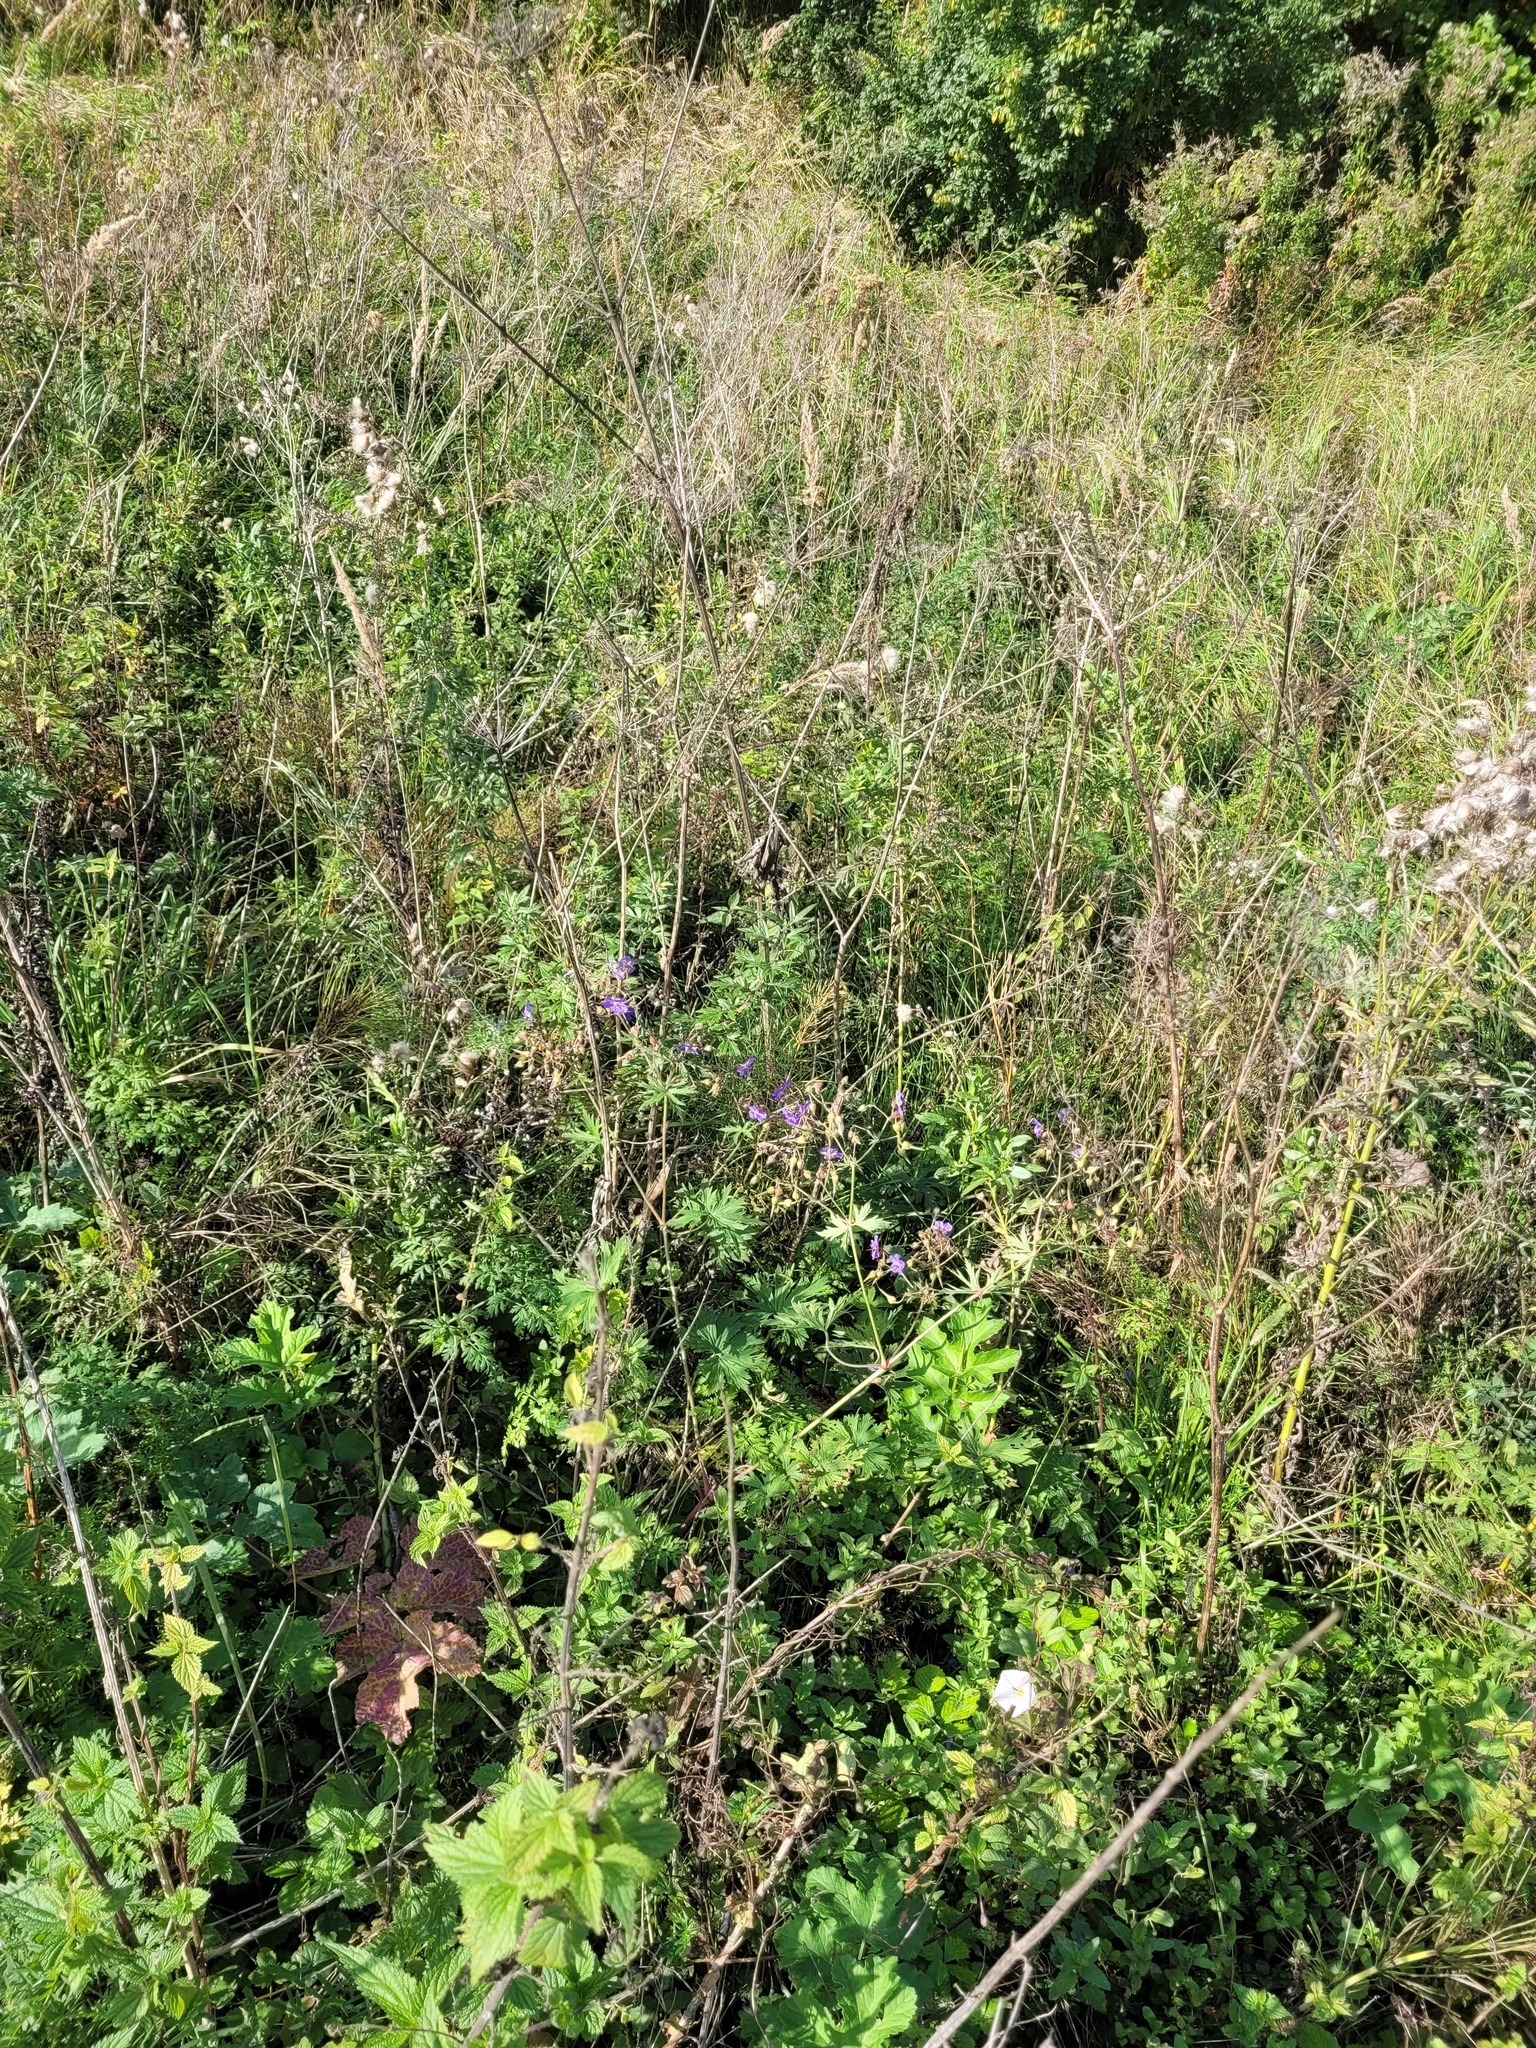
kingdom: Plantae
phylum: Tracheophyta
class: Magnoliopsida
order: Geraniales
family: Geraniaceae
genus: Geranium
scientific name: Geranium pratense
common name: Meadow crane's-bill
